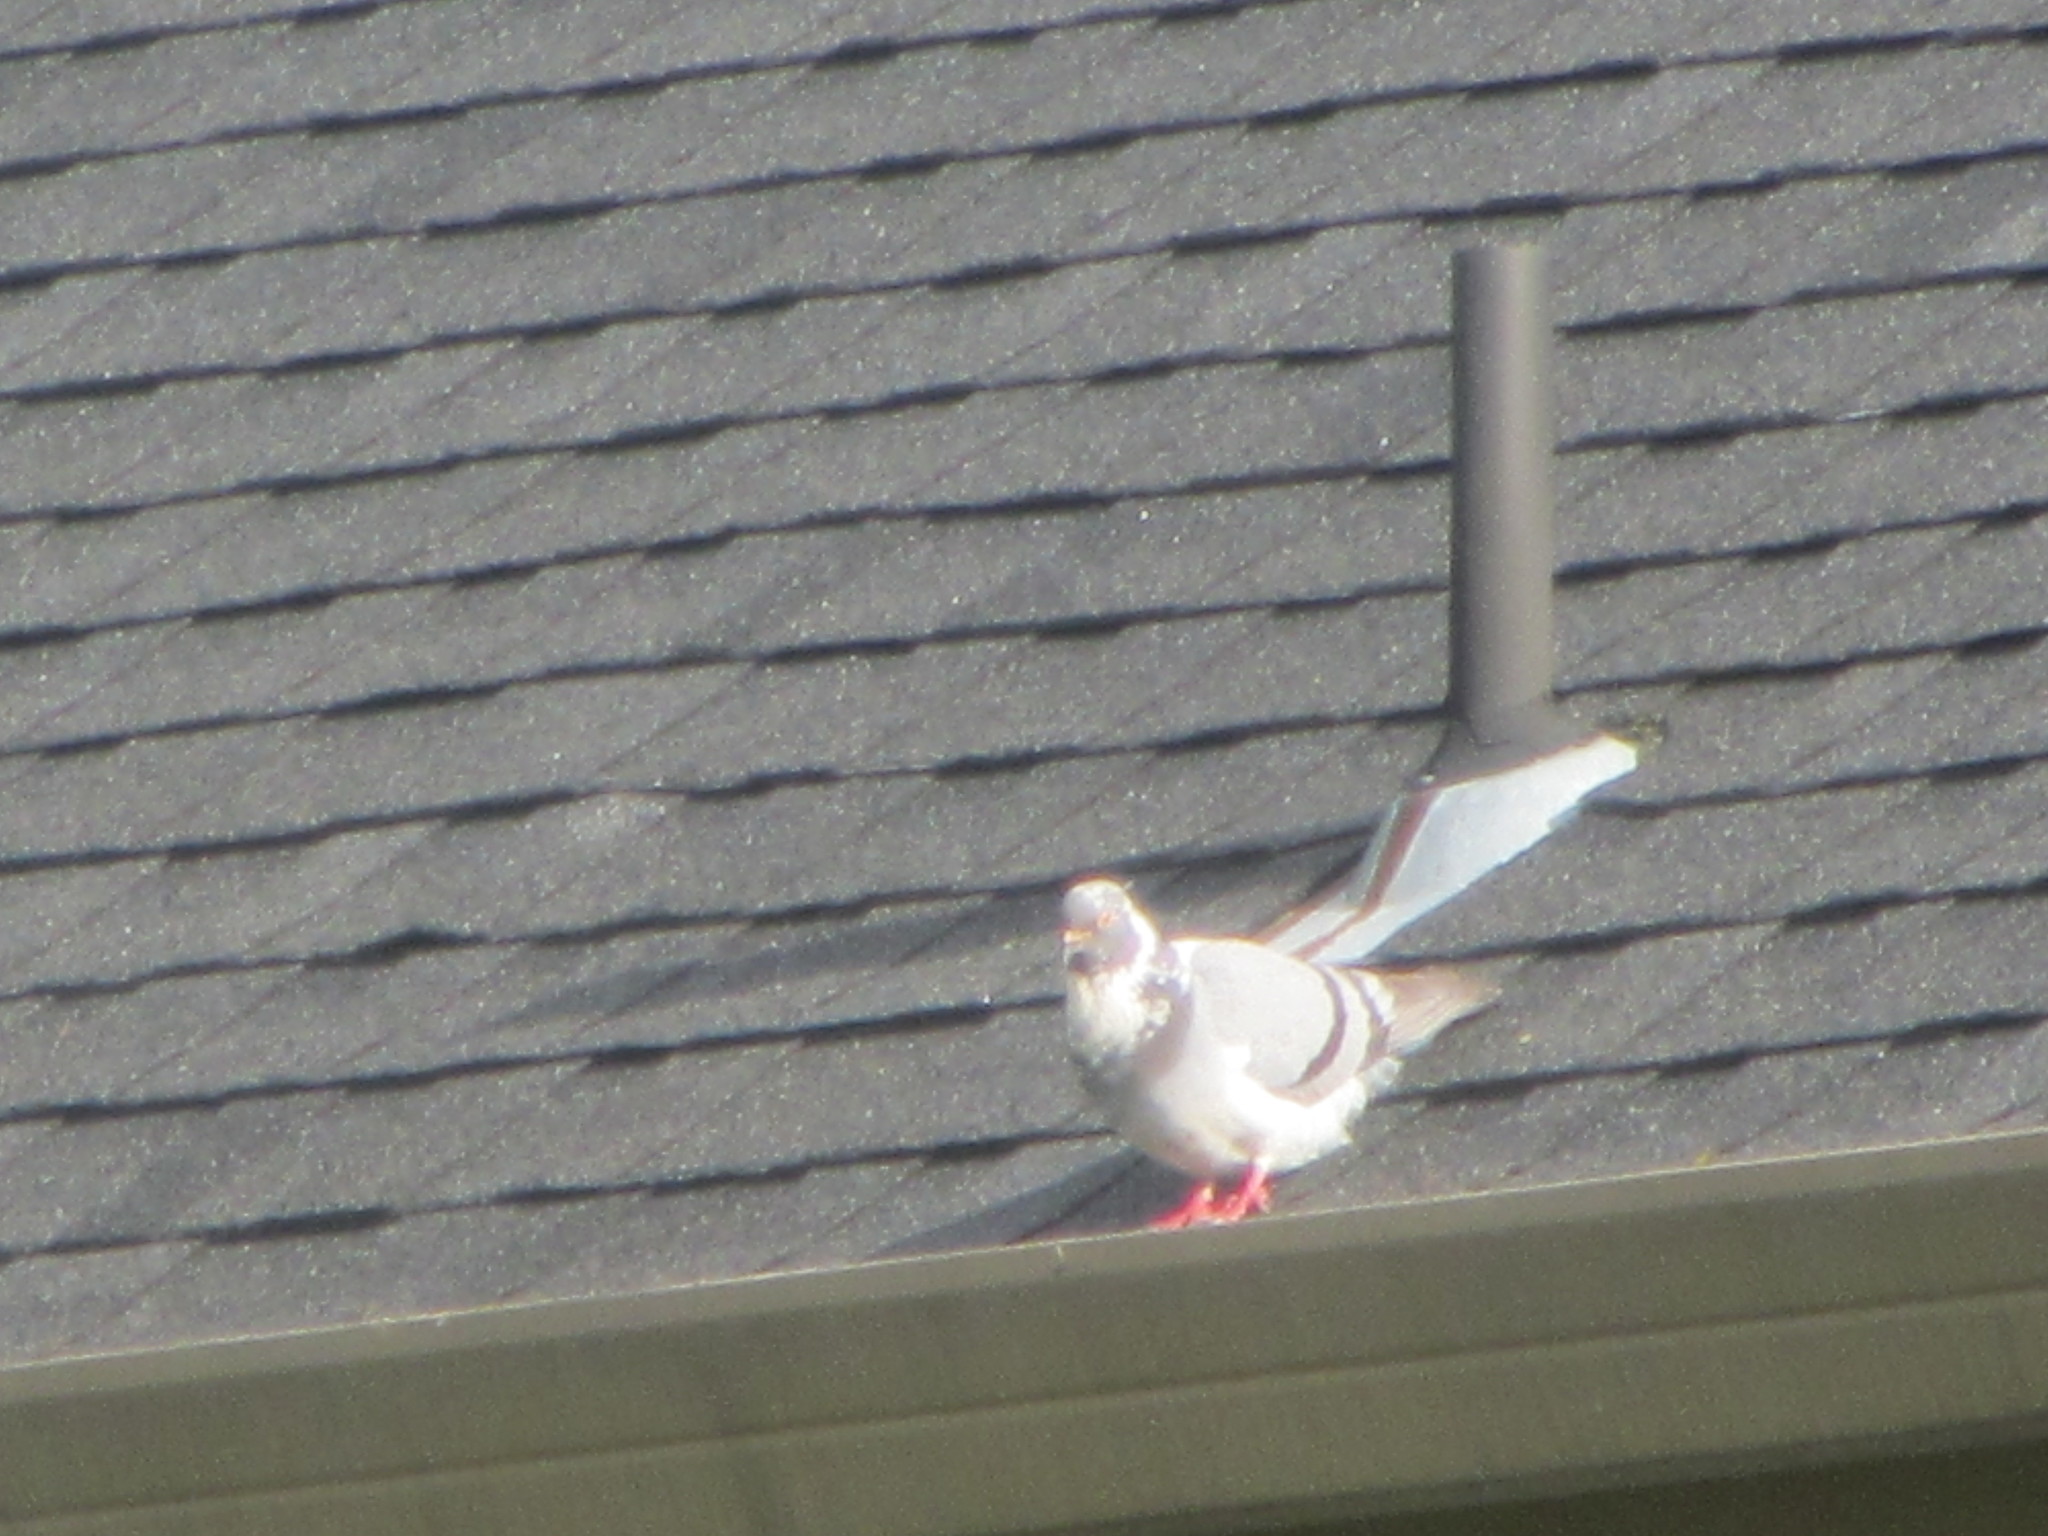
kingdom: Animalia
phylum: Chordata
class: Aves
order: Columbiformes
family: Columbidae
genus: Columba
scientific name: Columba livia
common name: Rock pigeon
